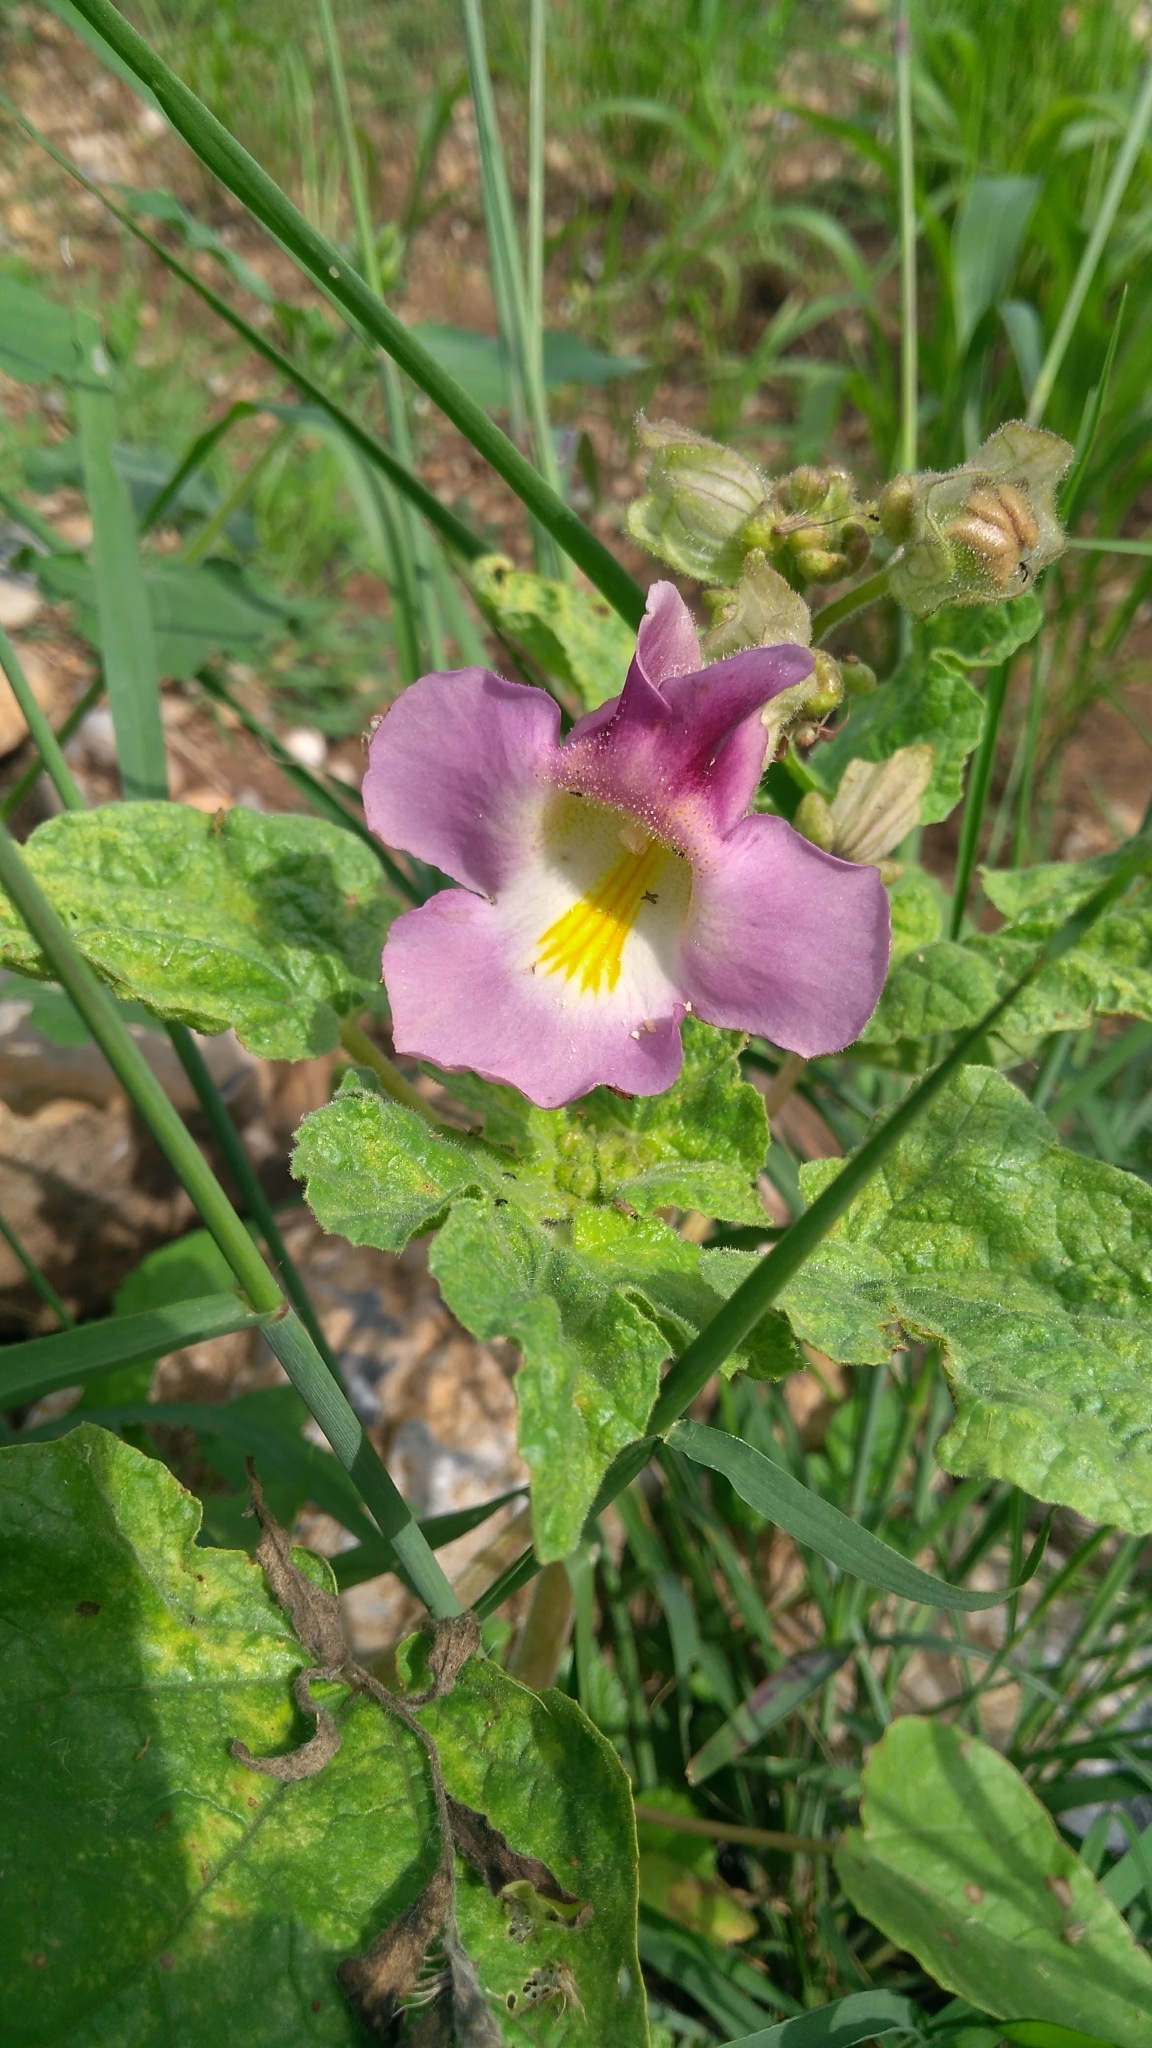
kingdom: Plantae
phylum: Tracheophyta
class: Magnoliopsida
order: Lamiales
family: Martyniaceae
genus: Proboscidea
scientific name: Proboscidea louisianica
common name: Elephant tusks
